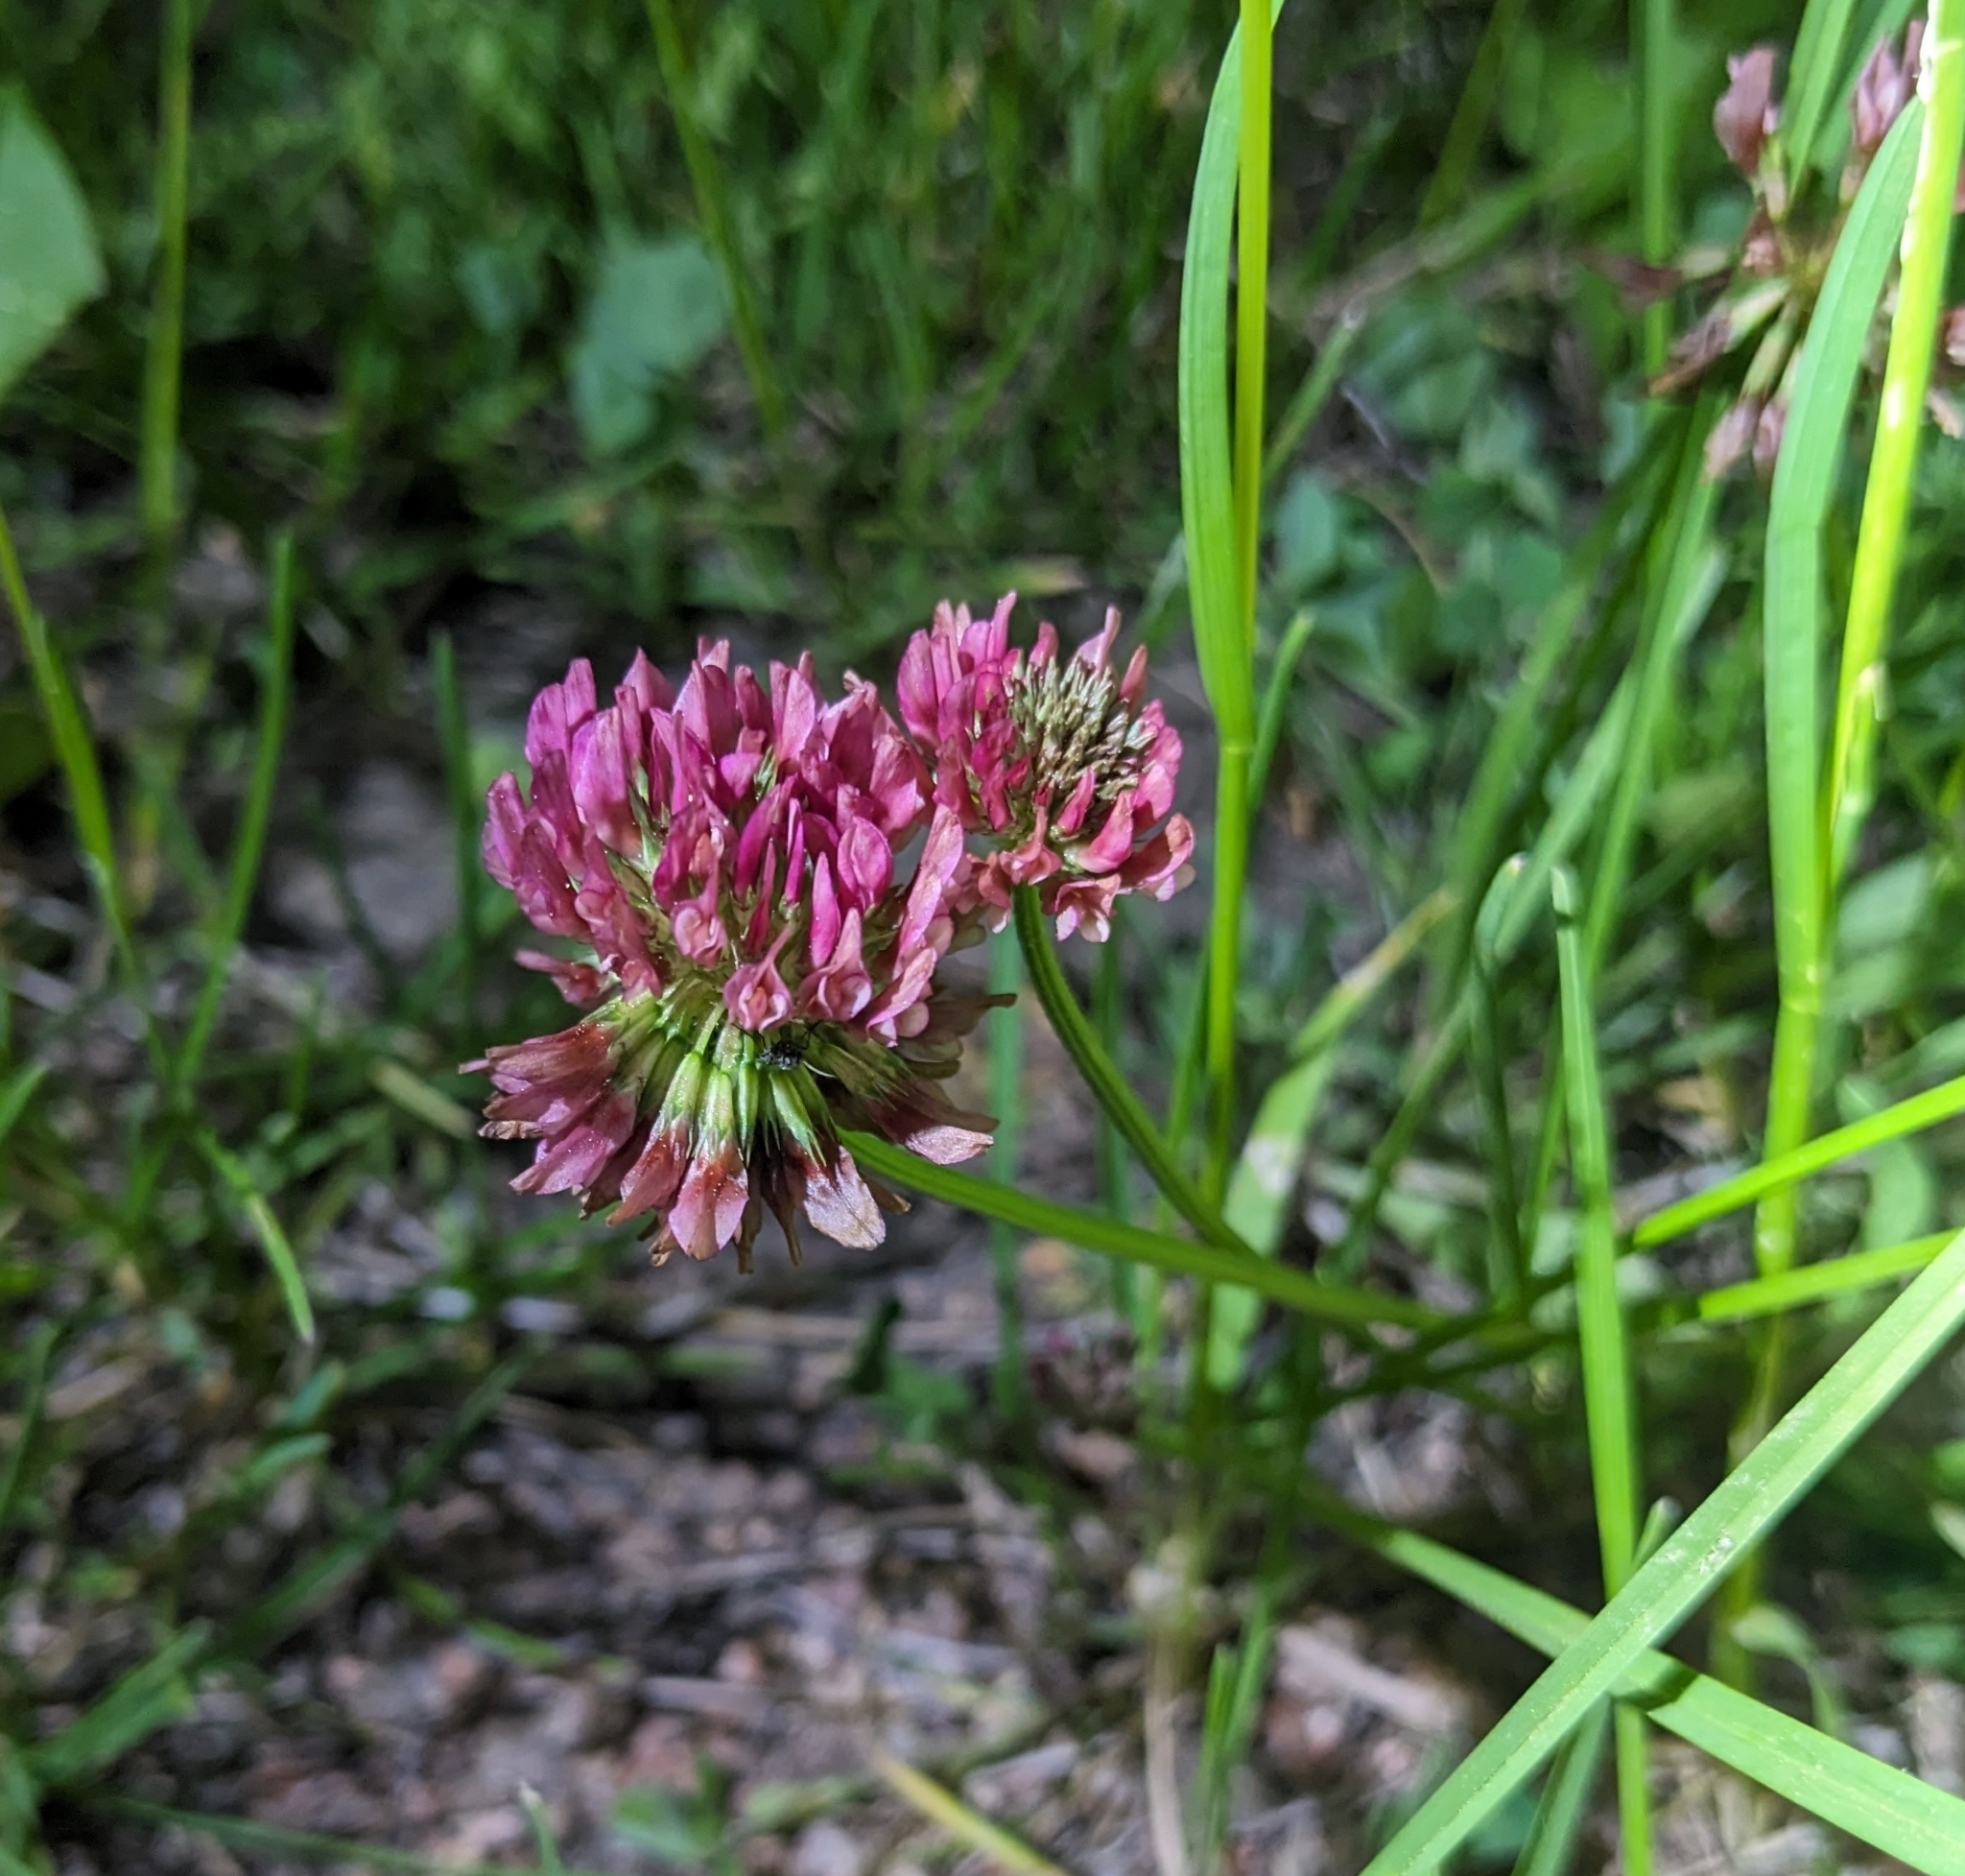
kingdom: Plantae
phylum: Tracheophyta
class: Magnoliopsida
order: Fabales
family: Fabaceae
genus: Trifolium
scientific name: Trifolium repens
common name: White clover
